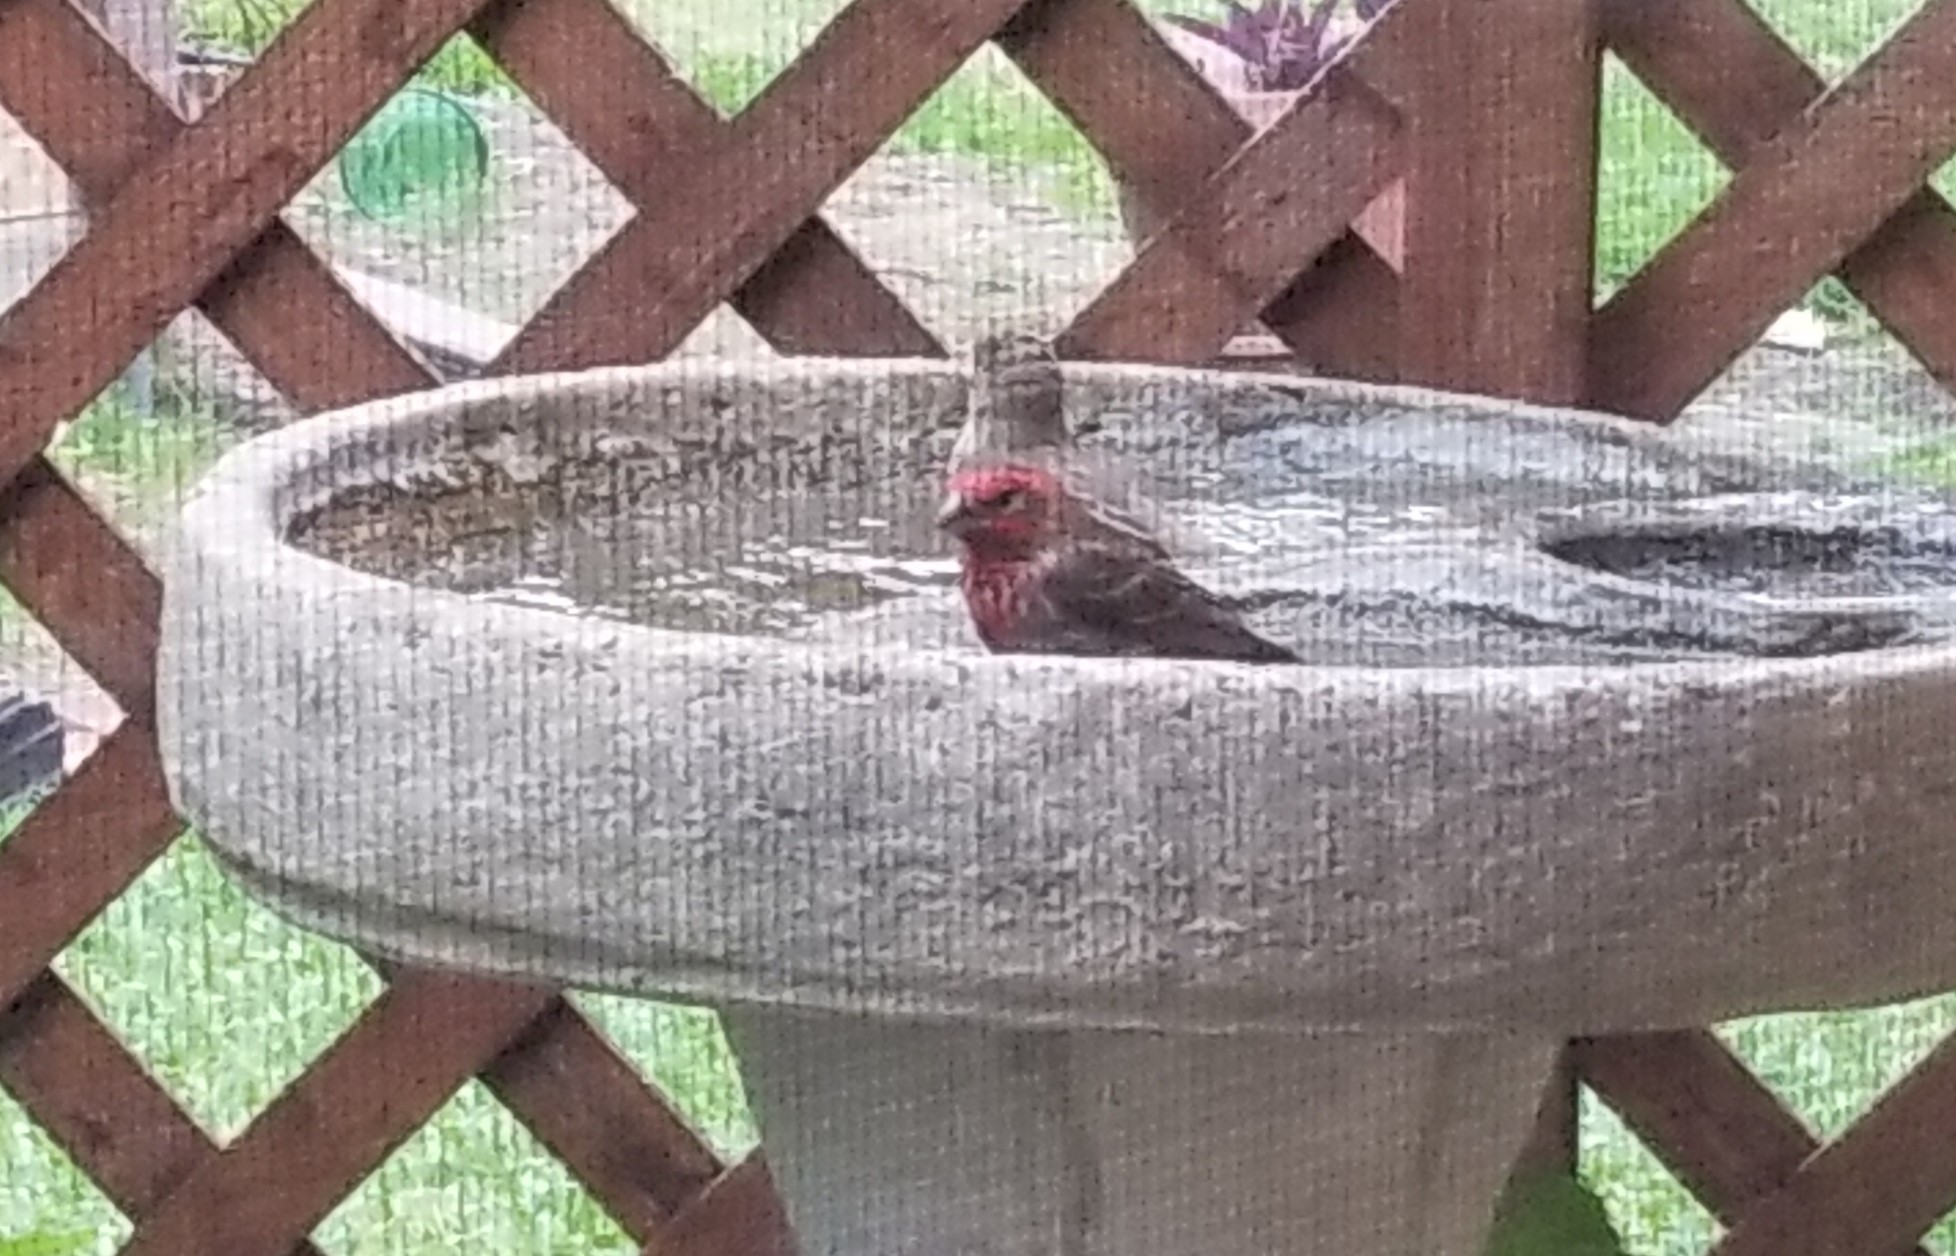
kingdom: Animalia
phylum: Chordata
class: Aves
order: Passeriformes
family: Fringillidae
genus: Haemorhous
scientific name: Haemorhous mexicanus
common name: House finch
